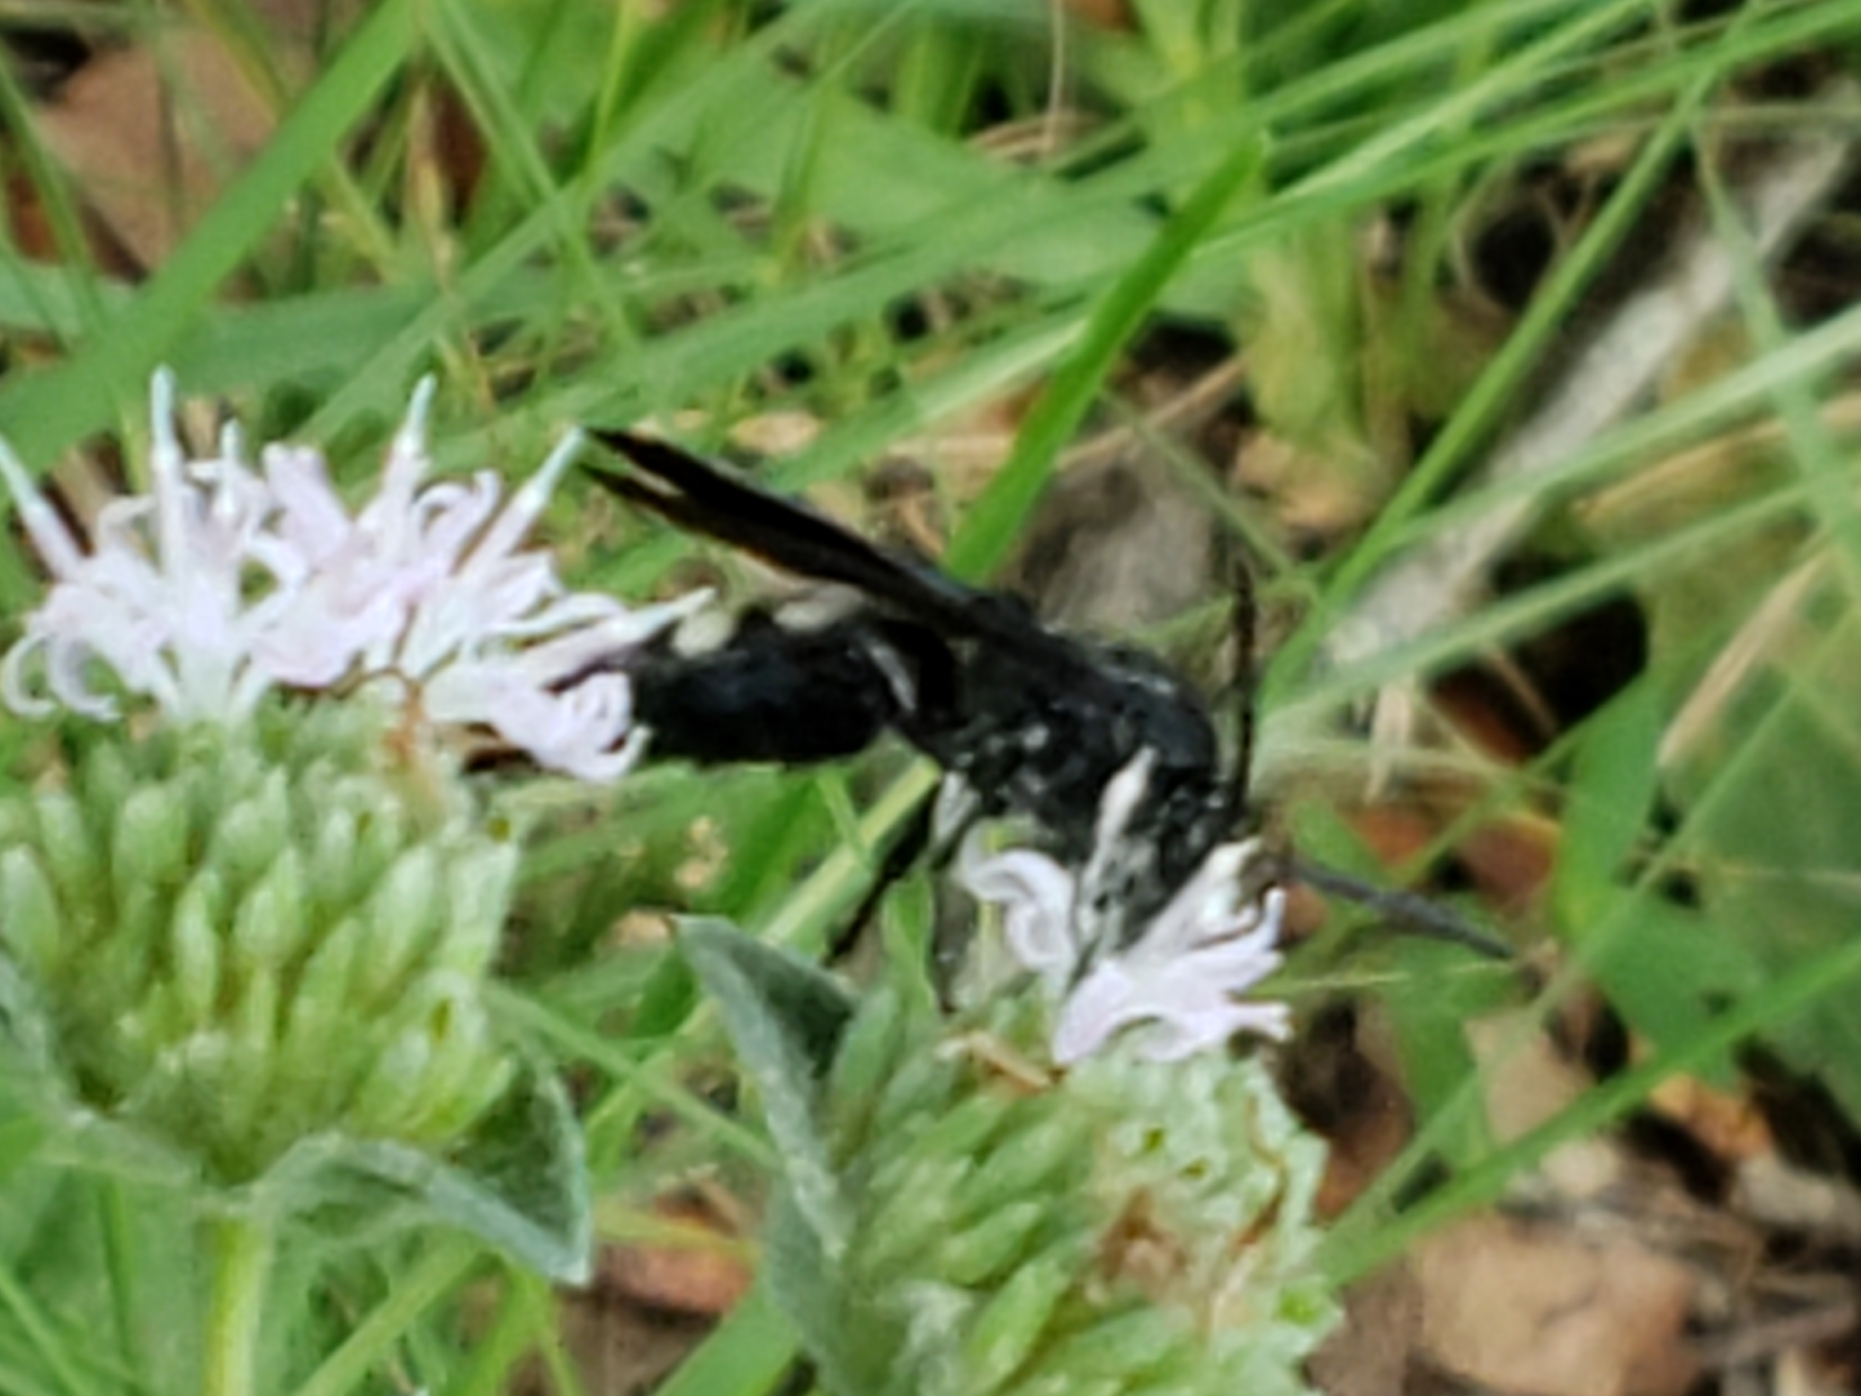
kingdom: Animalia
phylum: Arthropoda
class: Insecta
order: Hymenoptera
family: Scoliidae
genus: Scolia
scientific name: Scolia bicincta
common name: Double-banded scoliid wasp
